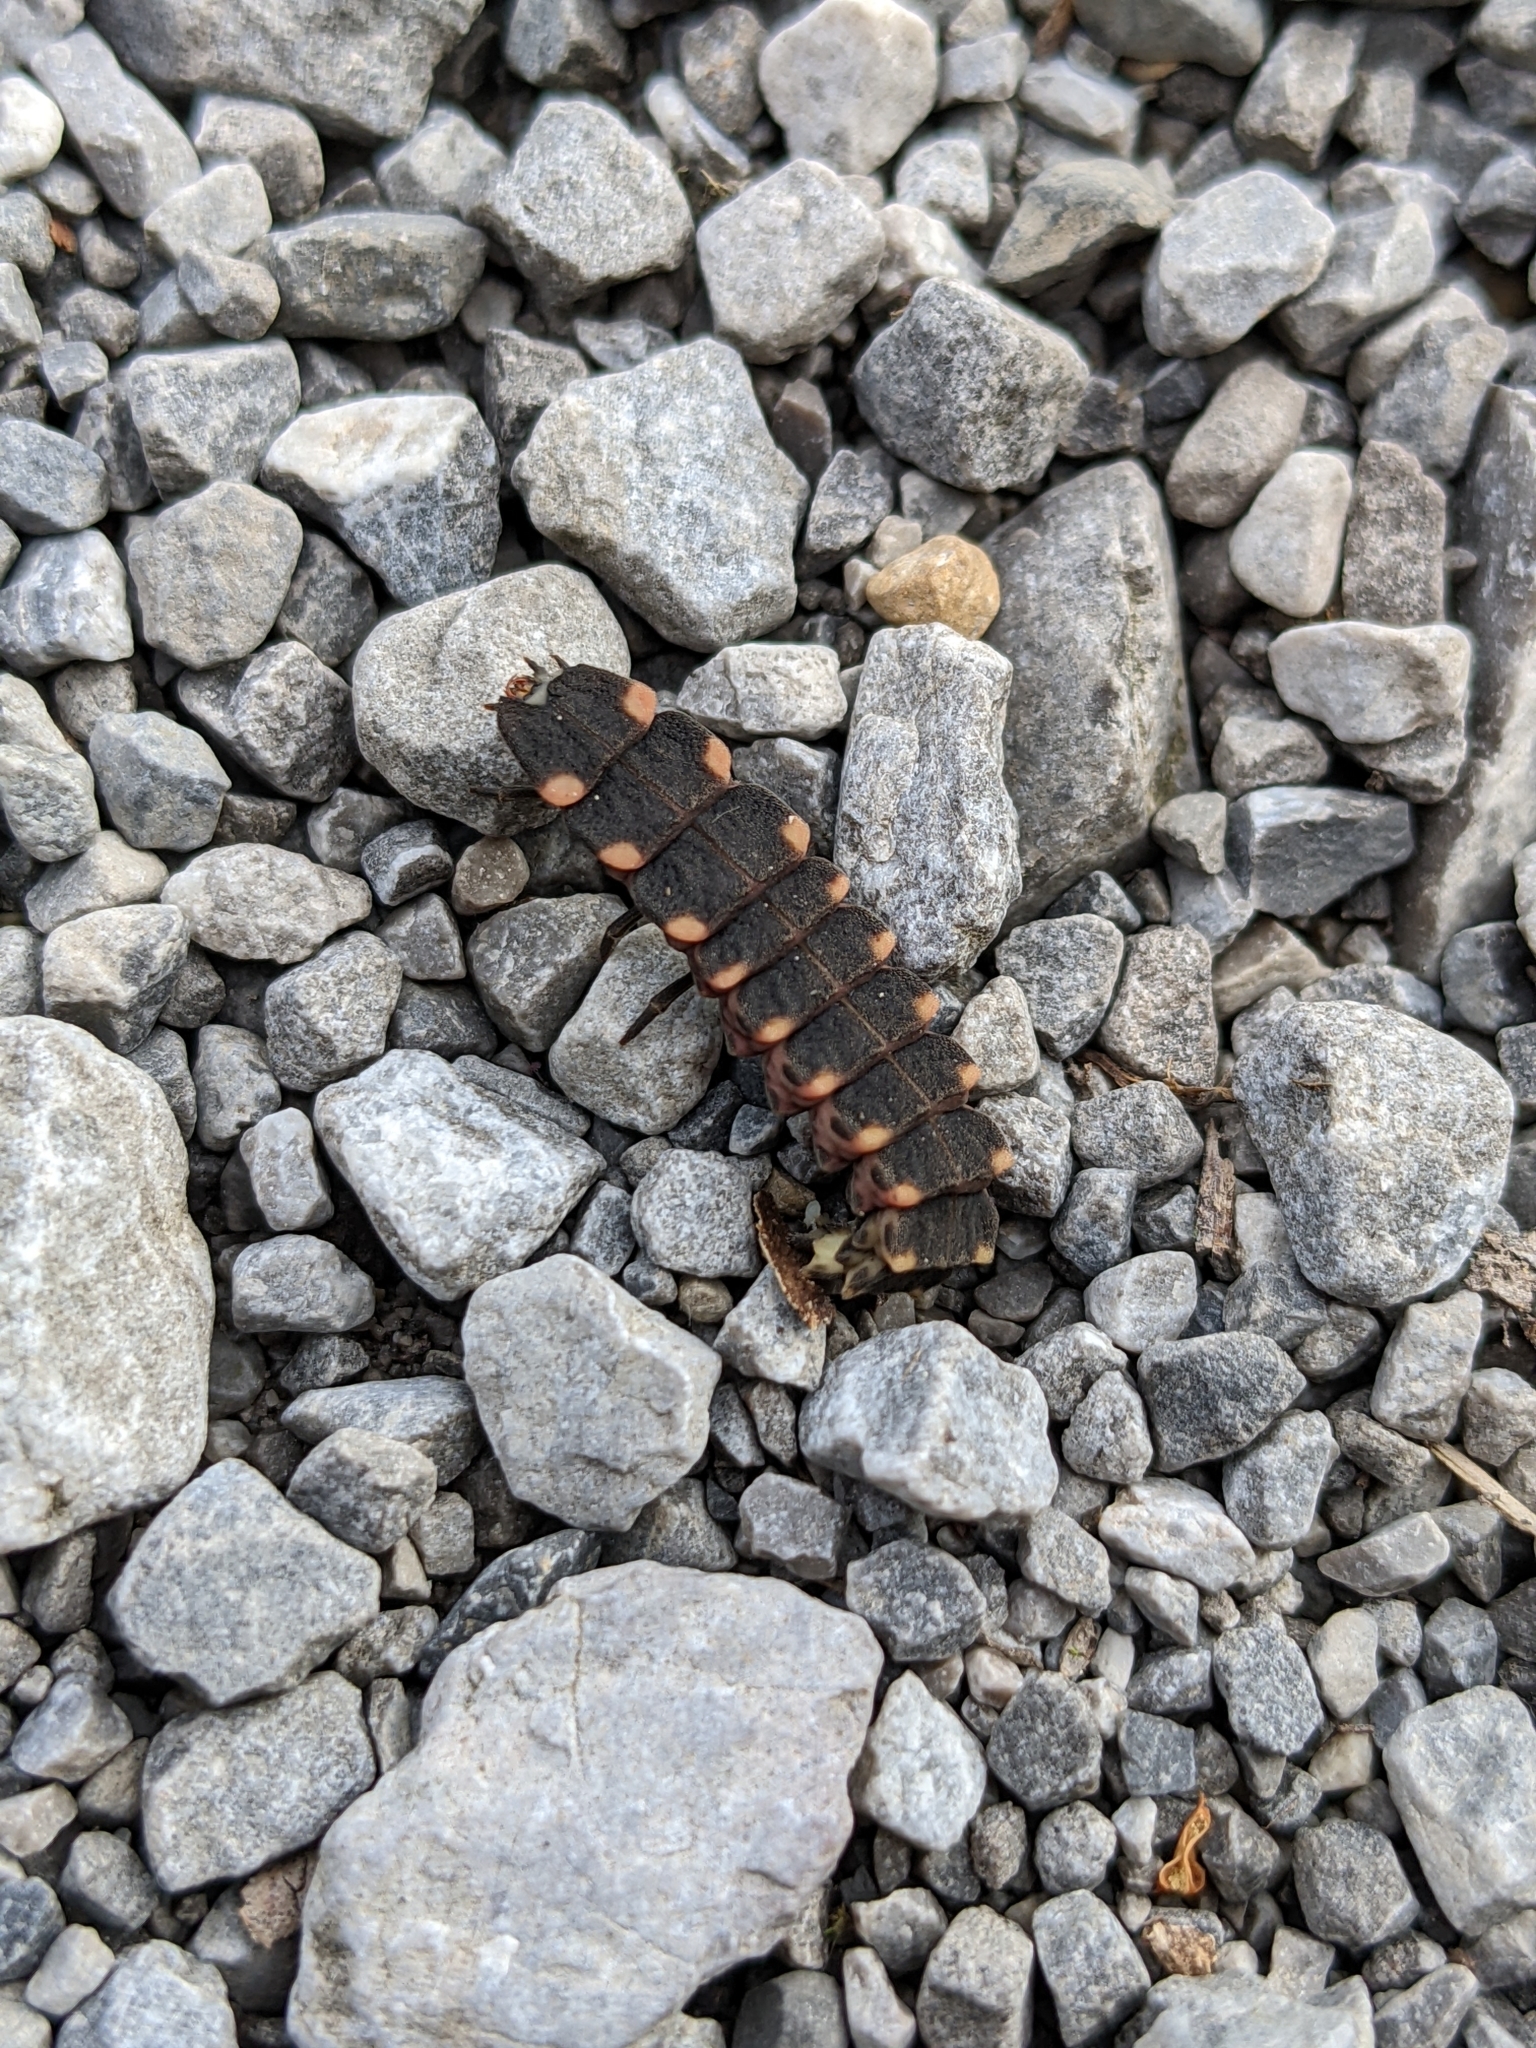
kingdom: Animalia
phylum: Arthropoda
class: Insecta
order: Coleoptera
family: Lampyridae
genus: Lampyris
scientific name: Lampyris noctiluca
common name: Glow-worm
